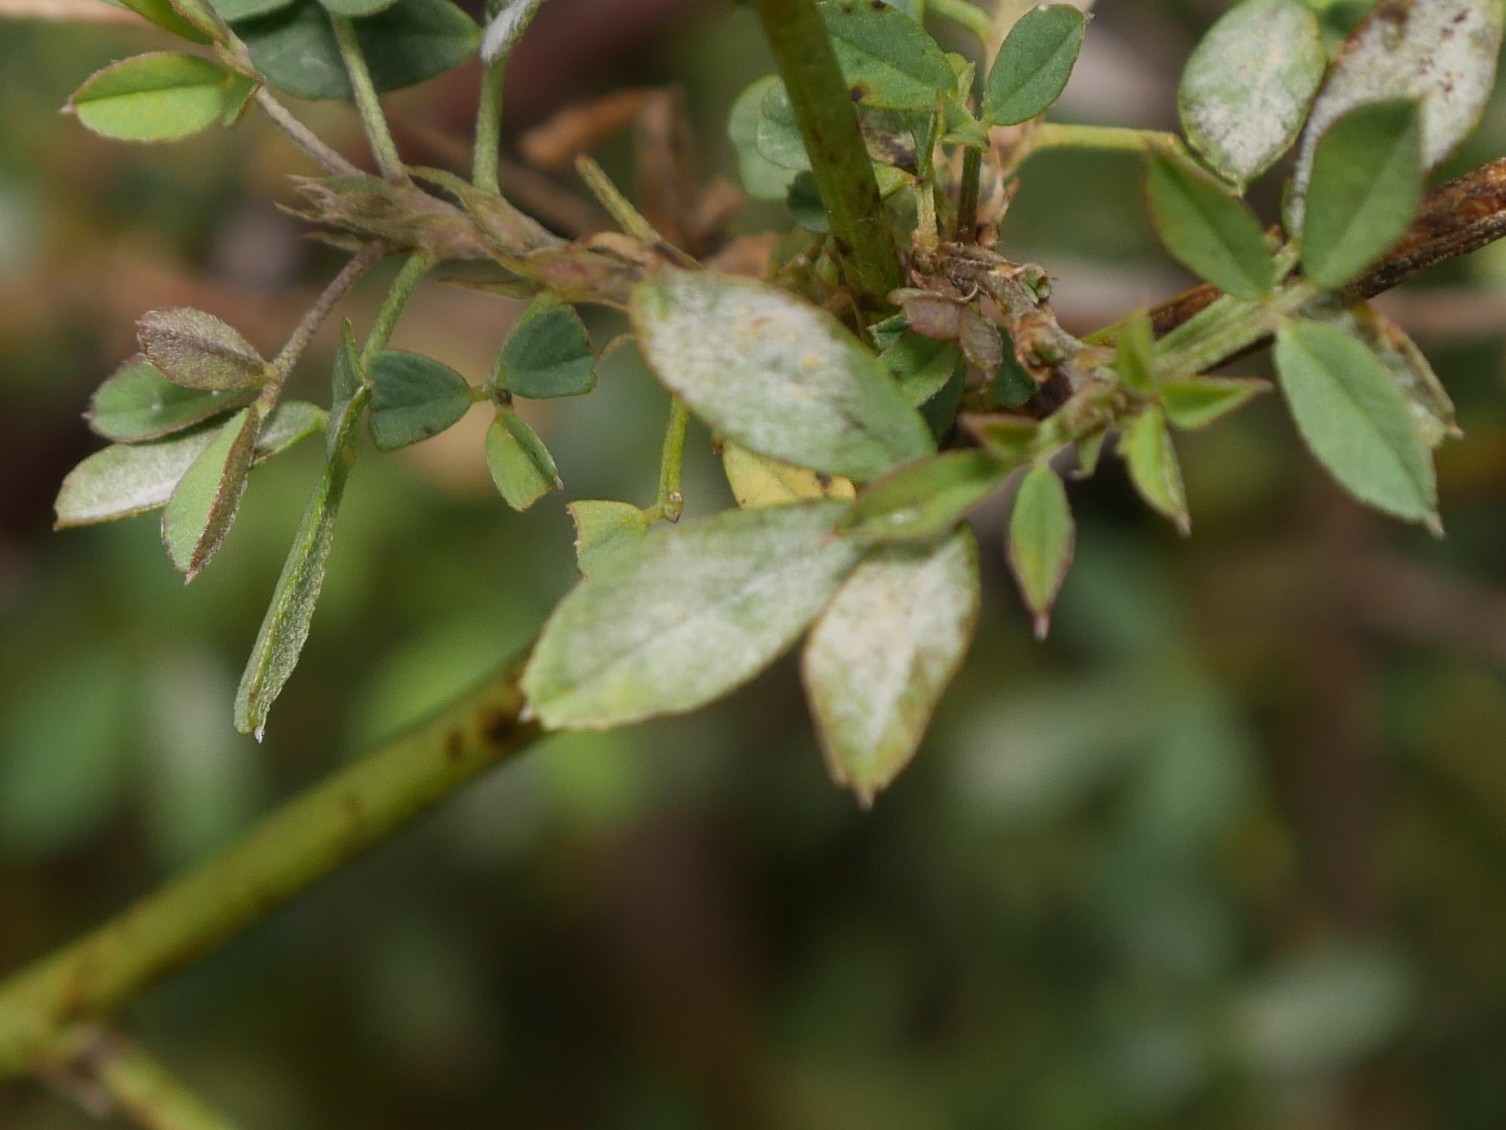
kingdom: Fungi
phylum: Ascomycota
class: Leotiomycetes
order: Helotiales
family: Erysiphaceae
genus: Erysiphe
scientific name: Erysiphe trifoliorum
